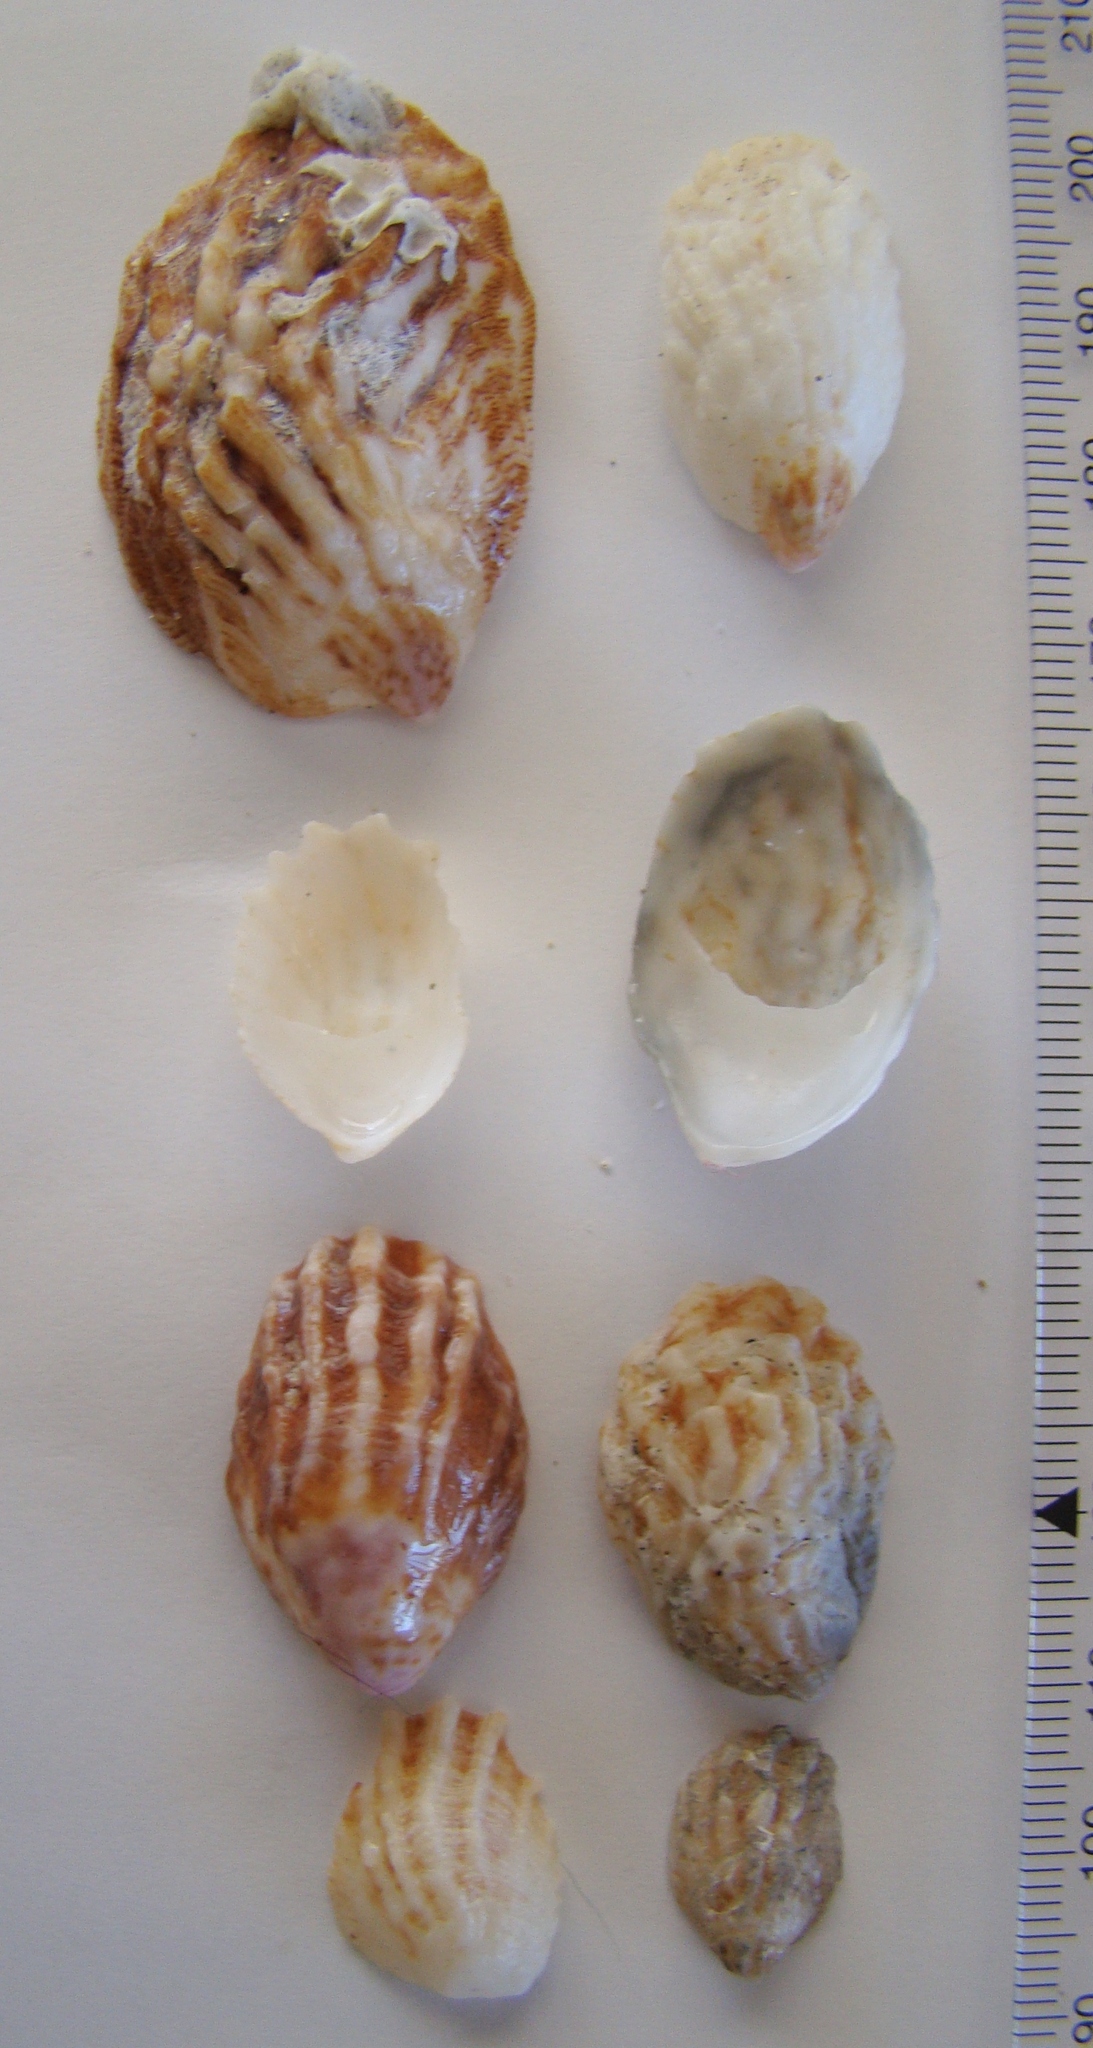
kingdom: Animalia
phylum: Mollusca
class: Gastropoda
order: Littorinimorpha
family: Calyptraeidae
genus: Maoricrypta
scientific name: Maoricrypta costata
